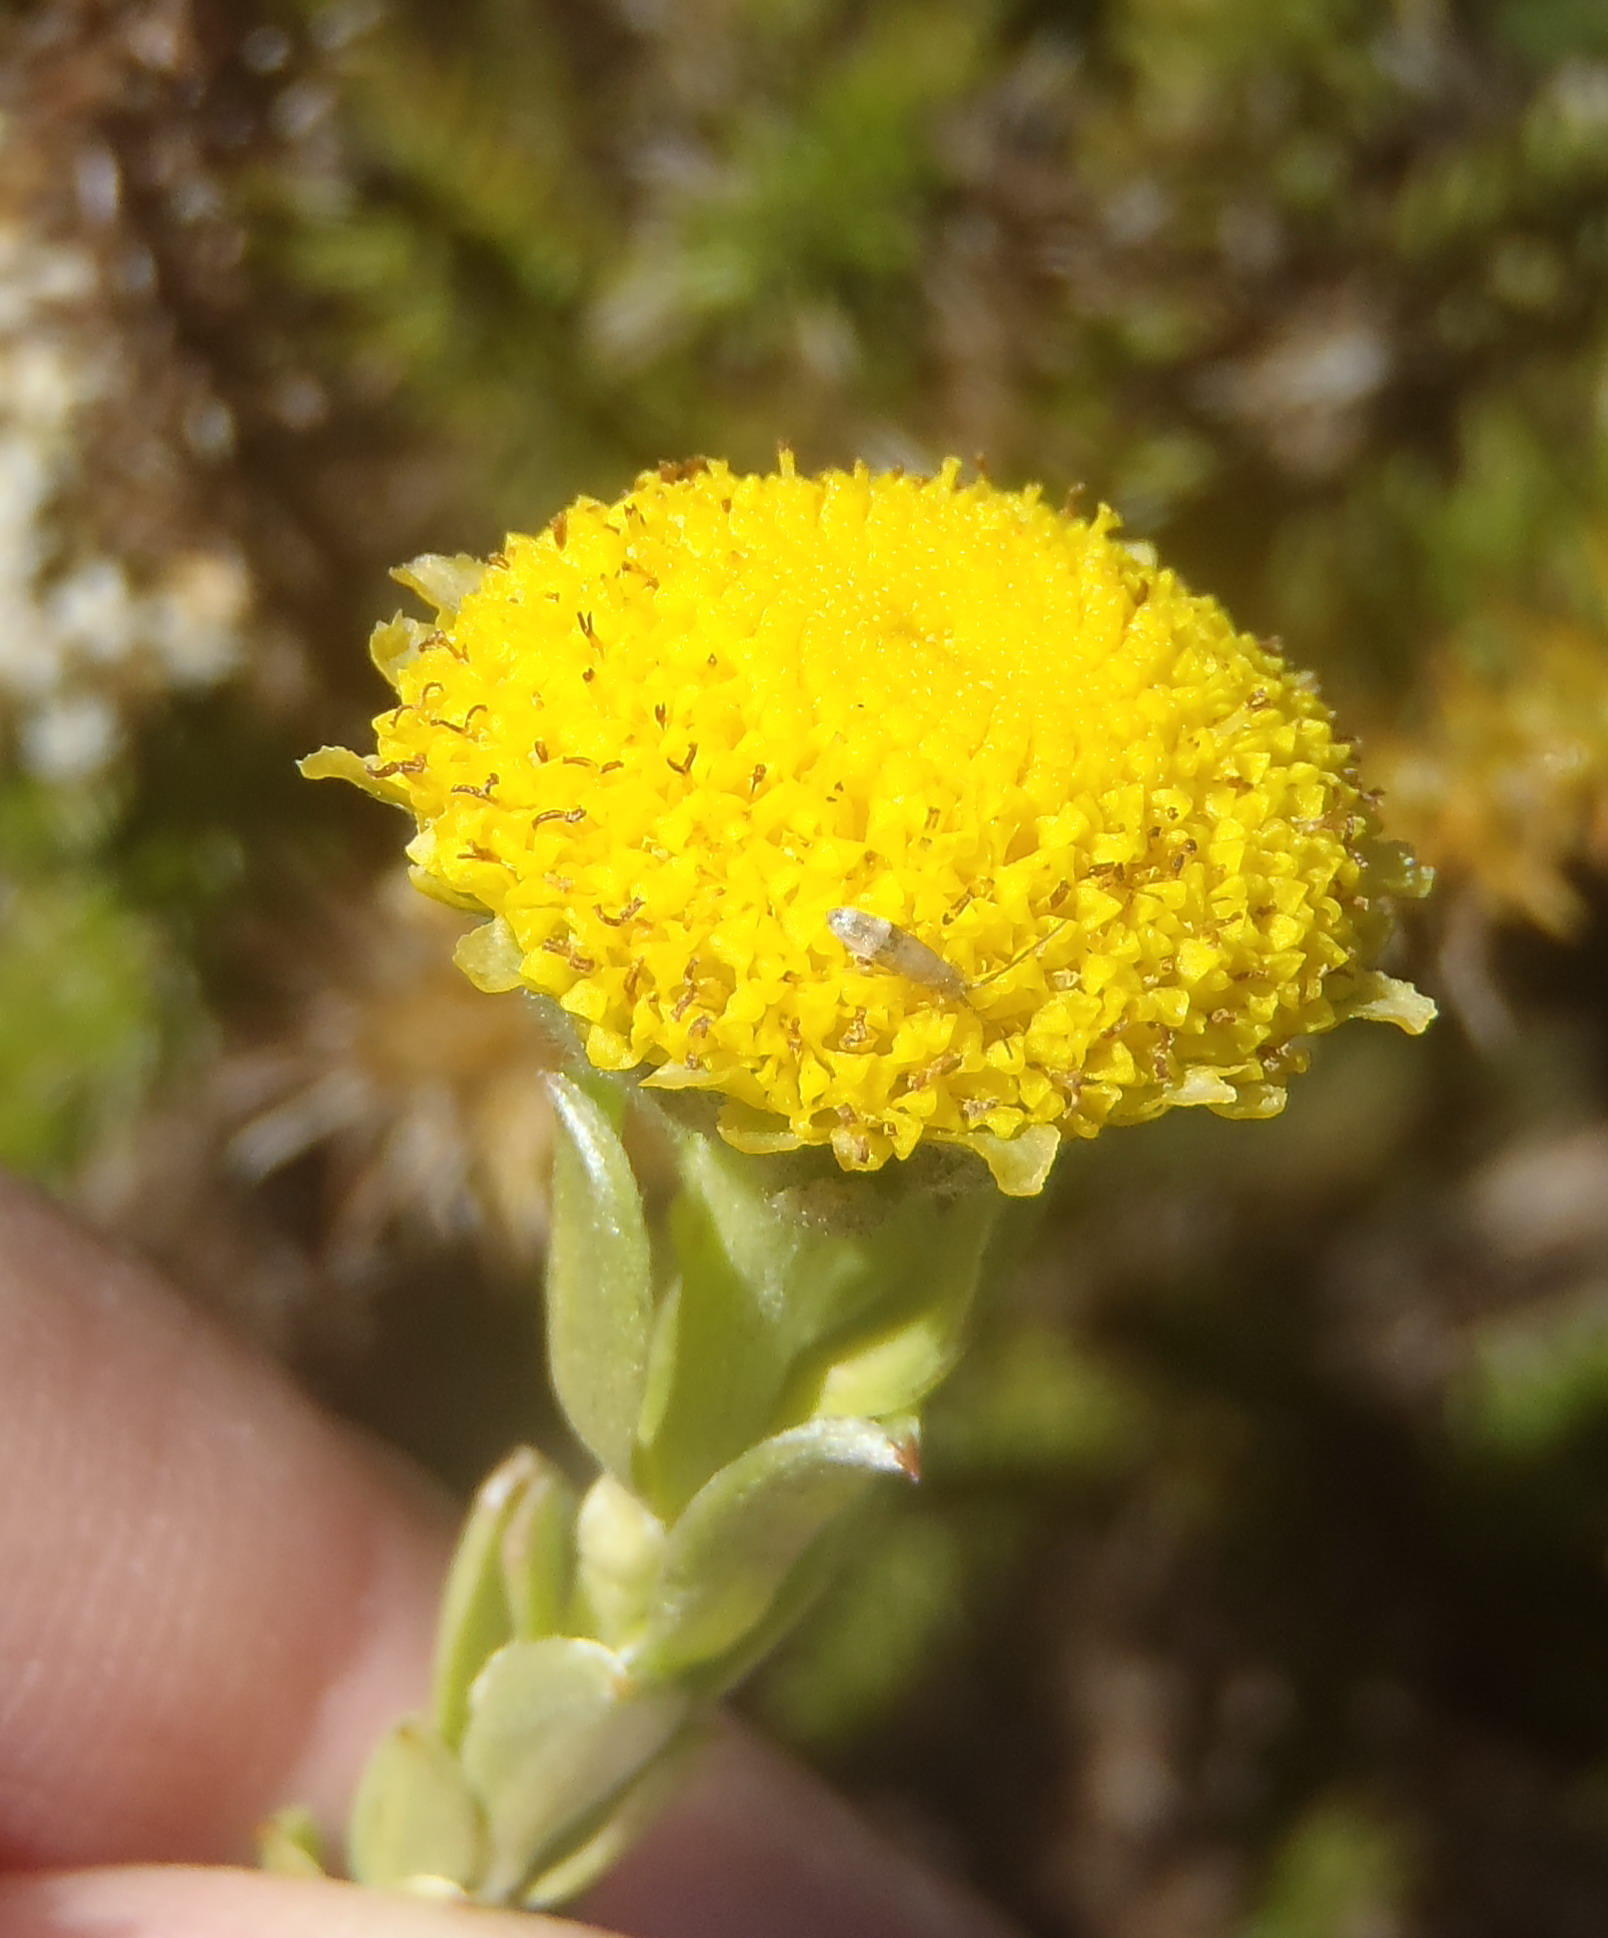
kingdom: Plantae
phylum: Tracheophyta
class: Magnoliopsida
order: Asterales
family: Asteraceae
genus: Schistostephium
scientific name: Schistostephium umbellatum
